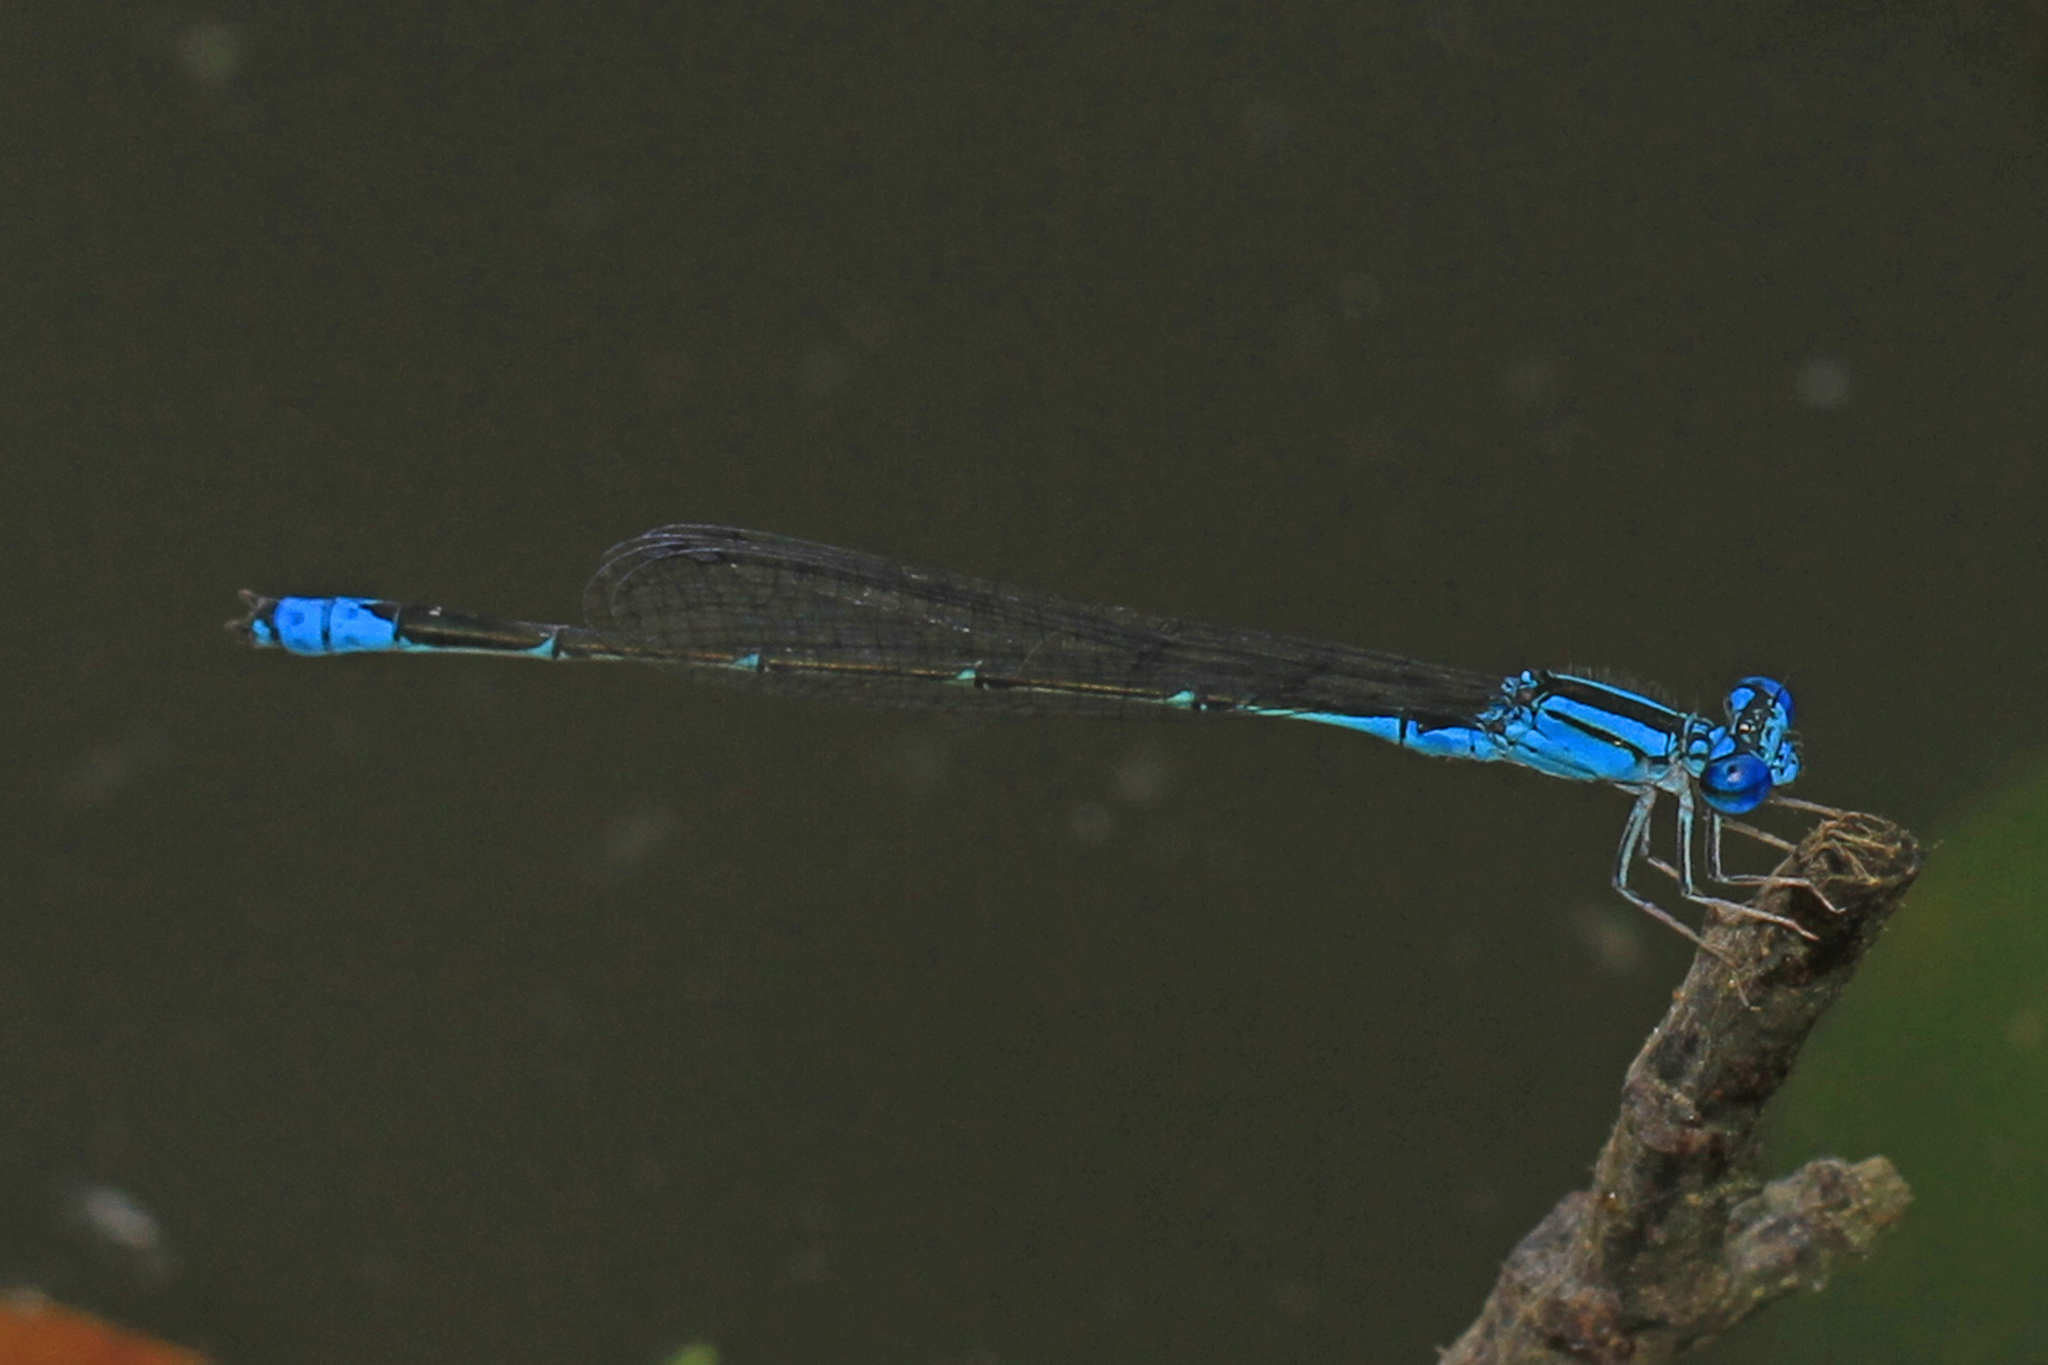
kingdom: Animalia
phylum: Arthropoda
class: Insecta
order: Odonata
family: Coenagrionidae
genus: Enallagma
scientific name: Enallagma traviatum
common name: Slender bluet
